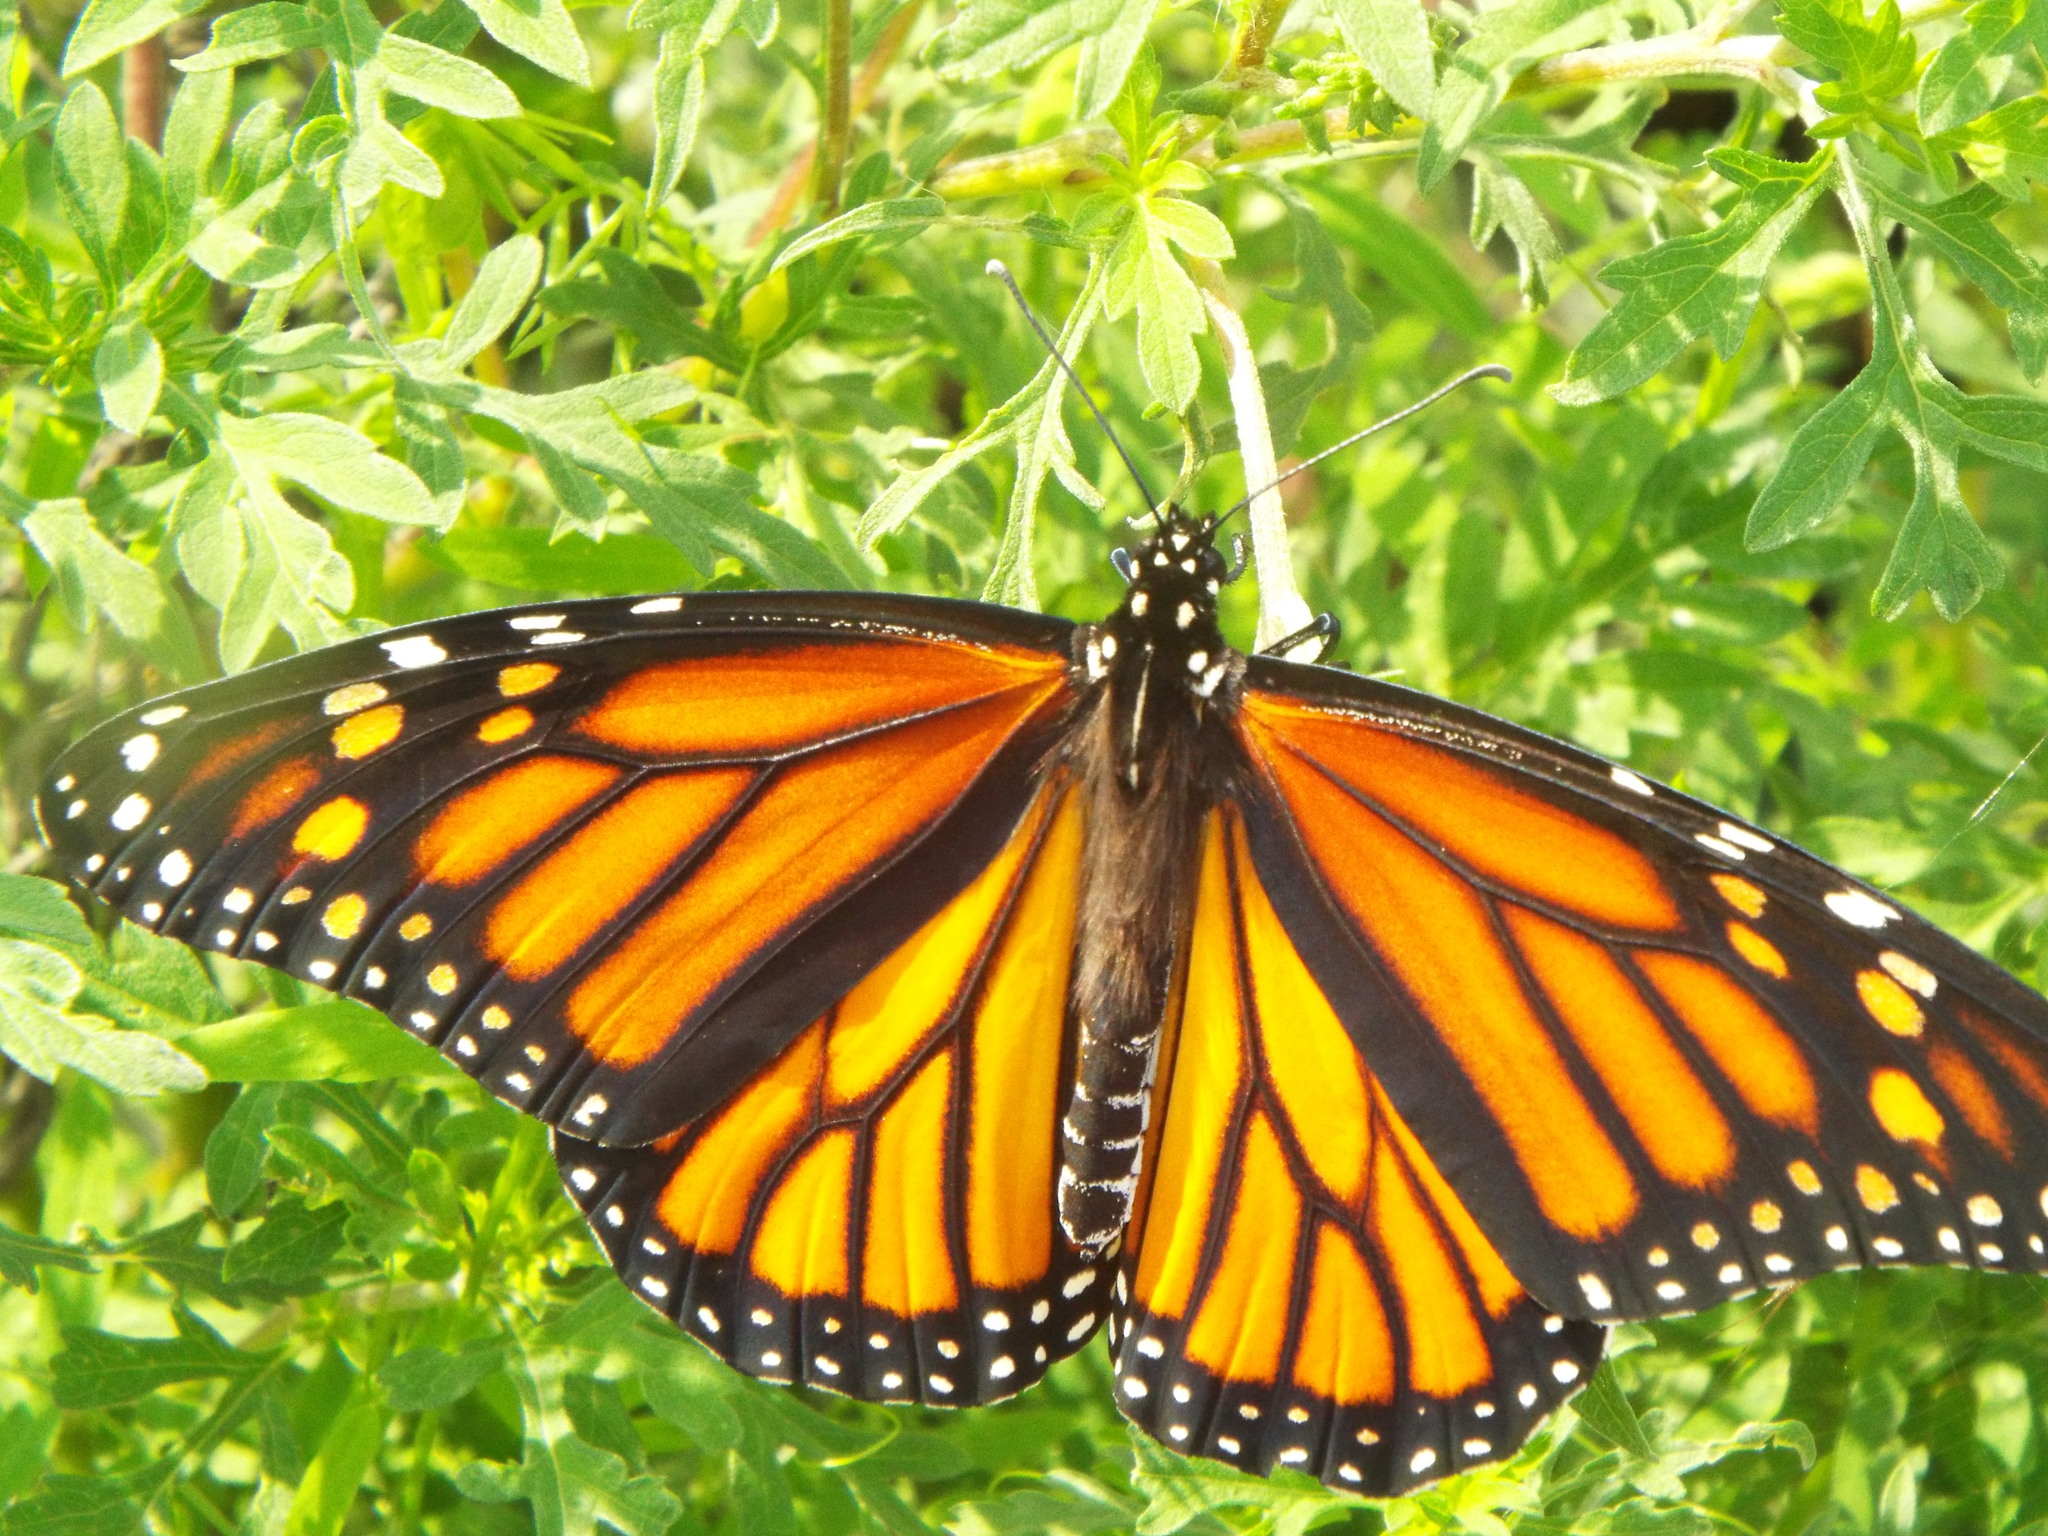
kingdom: Animalia
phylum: Arthropoda
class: Insecta
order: Lepidoptera
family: Nymphalidae
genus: Danaus
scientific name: Danaus plexippus
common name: Monarch
